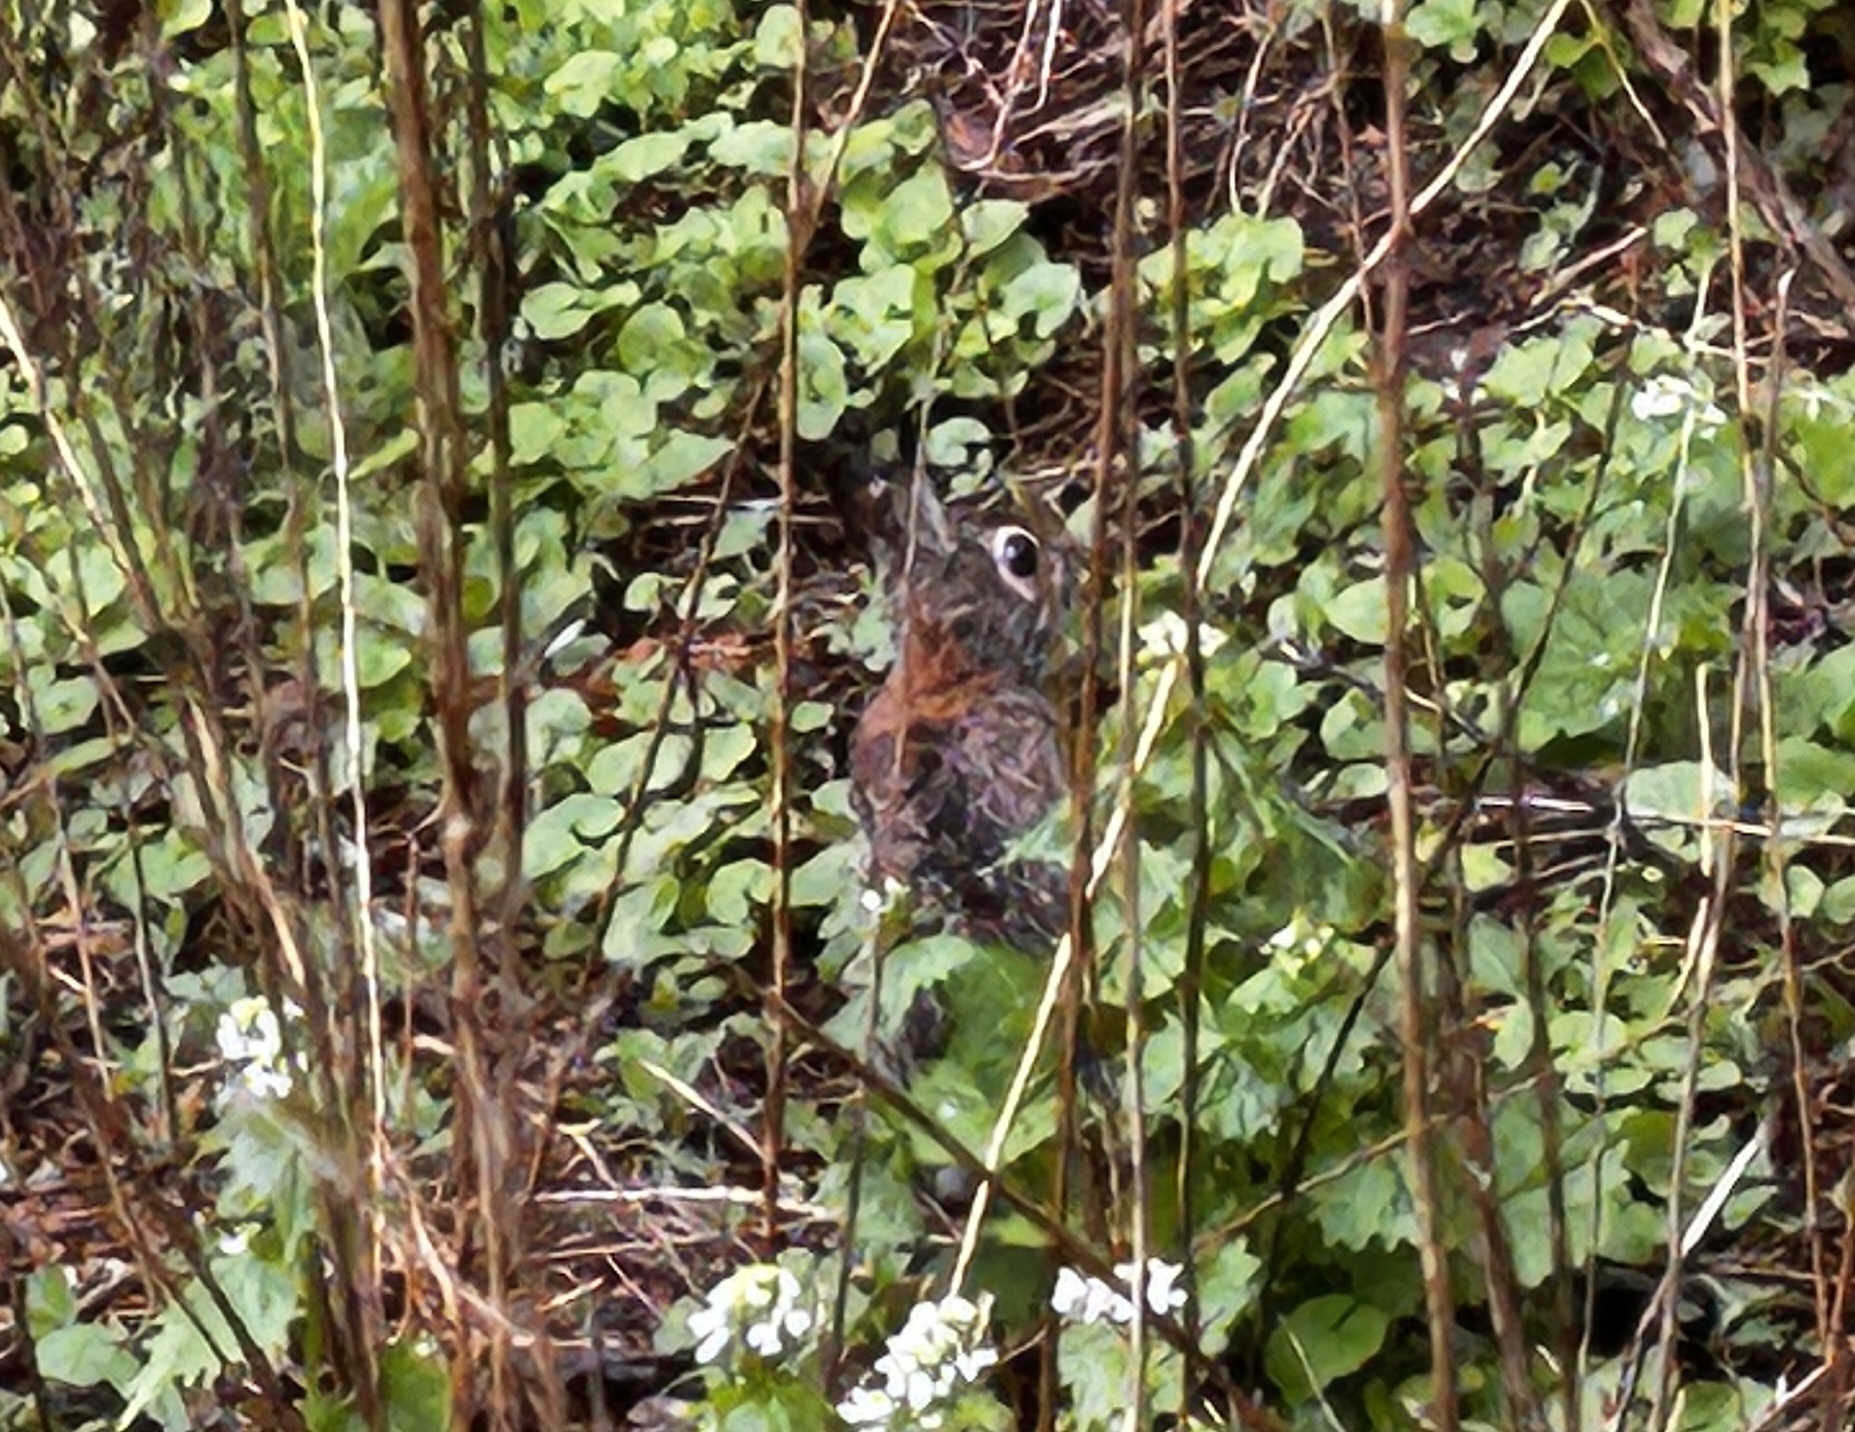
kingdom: Animalia
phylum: Chordata
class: Mammalia
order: Lagomorpha
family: Leporidae
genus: Sylvilagus
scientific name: Sylvilagus floridanus
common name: Eastern cottontail
